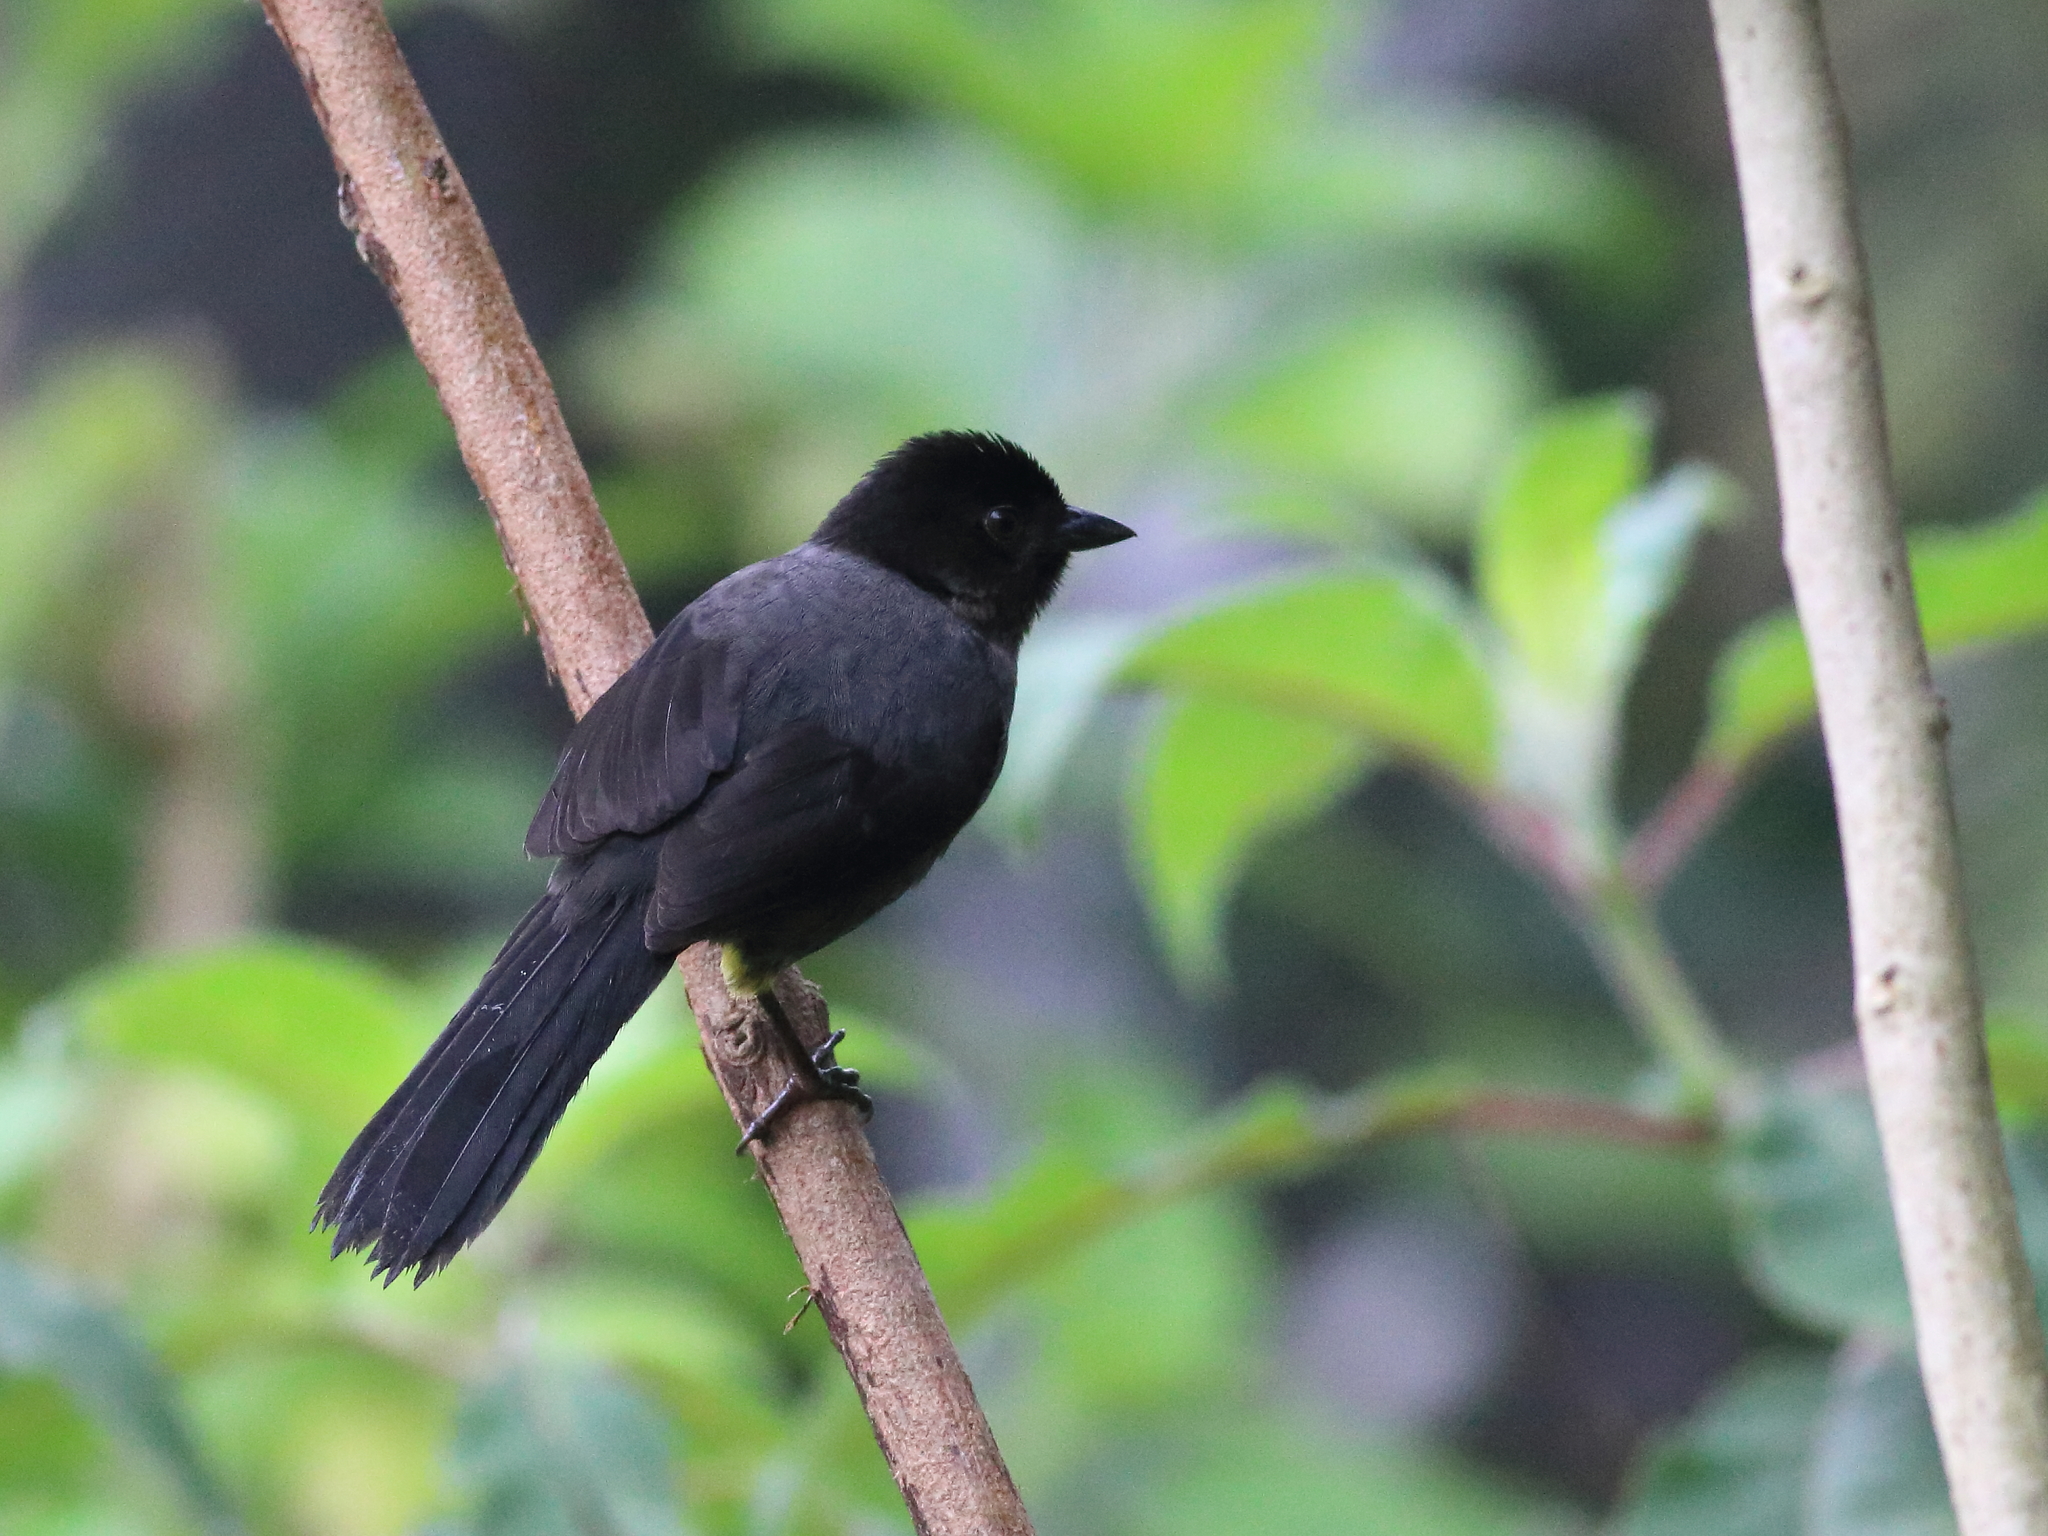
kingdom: Animalia
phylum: Chordata
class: Aves
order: Passeriformes
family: Passerellidae
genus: Atlapetes
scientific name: Atlapetes tibialis
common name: Yellow-thighed brushfinch
